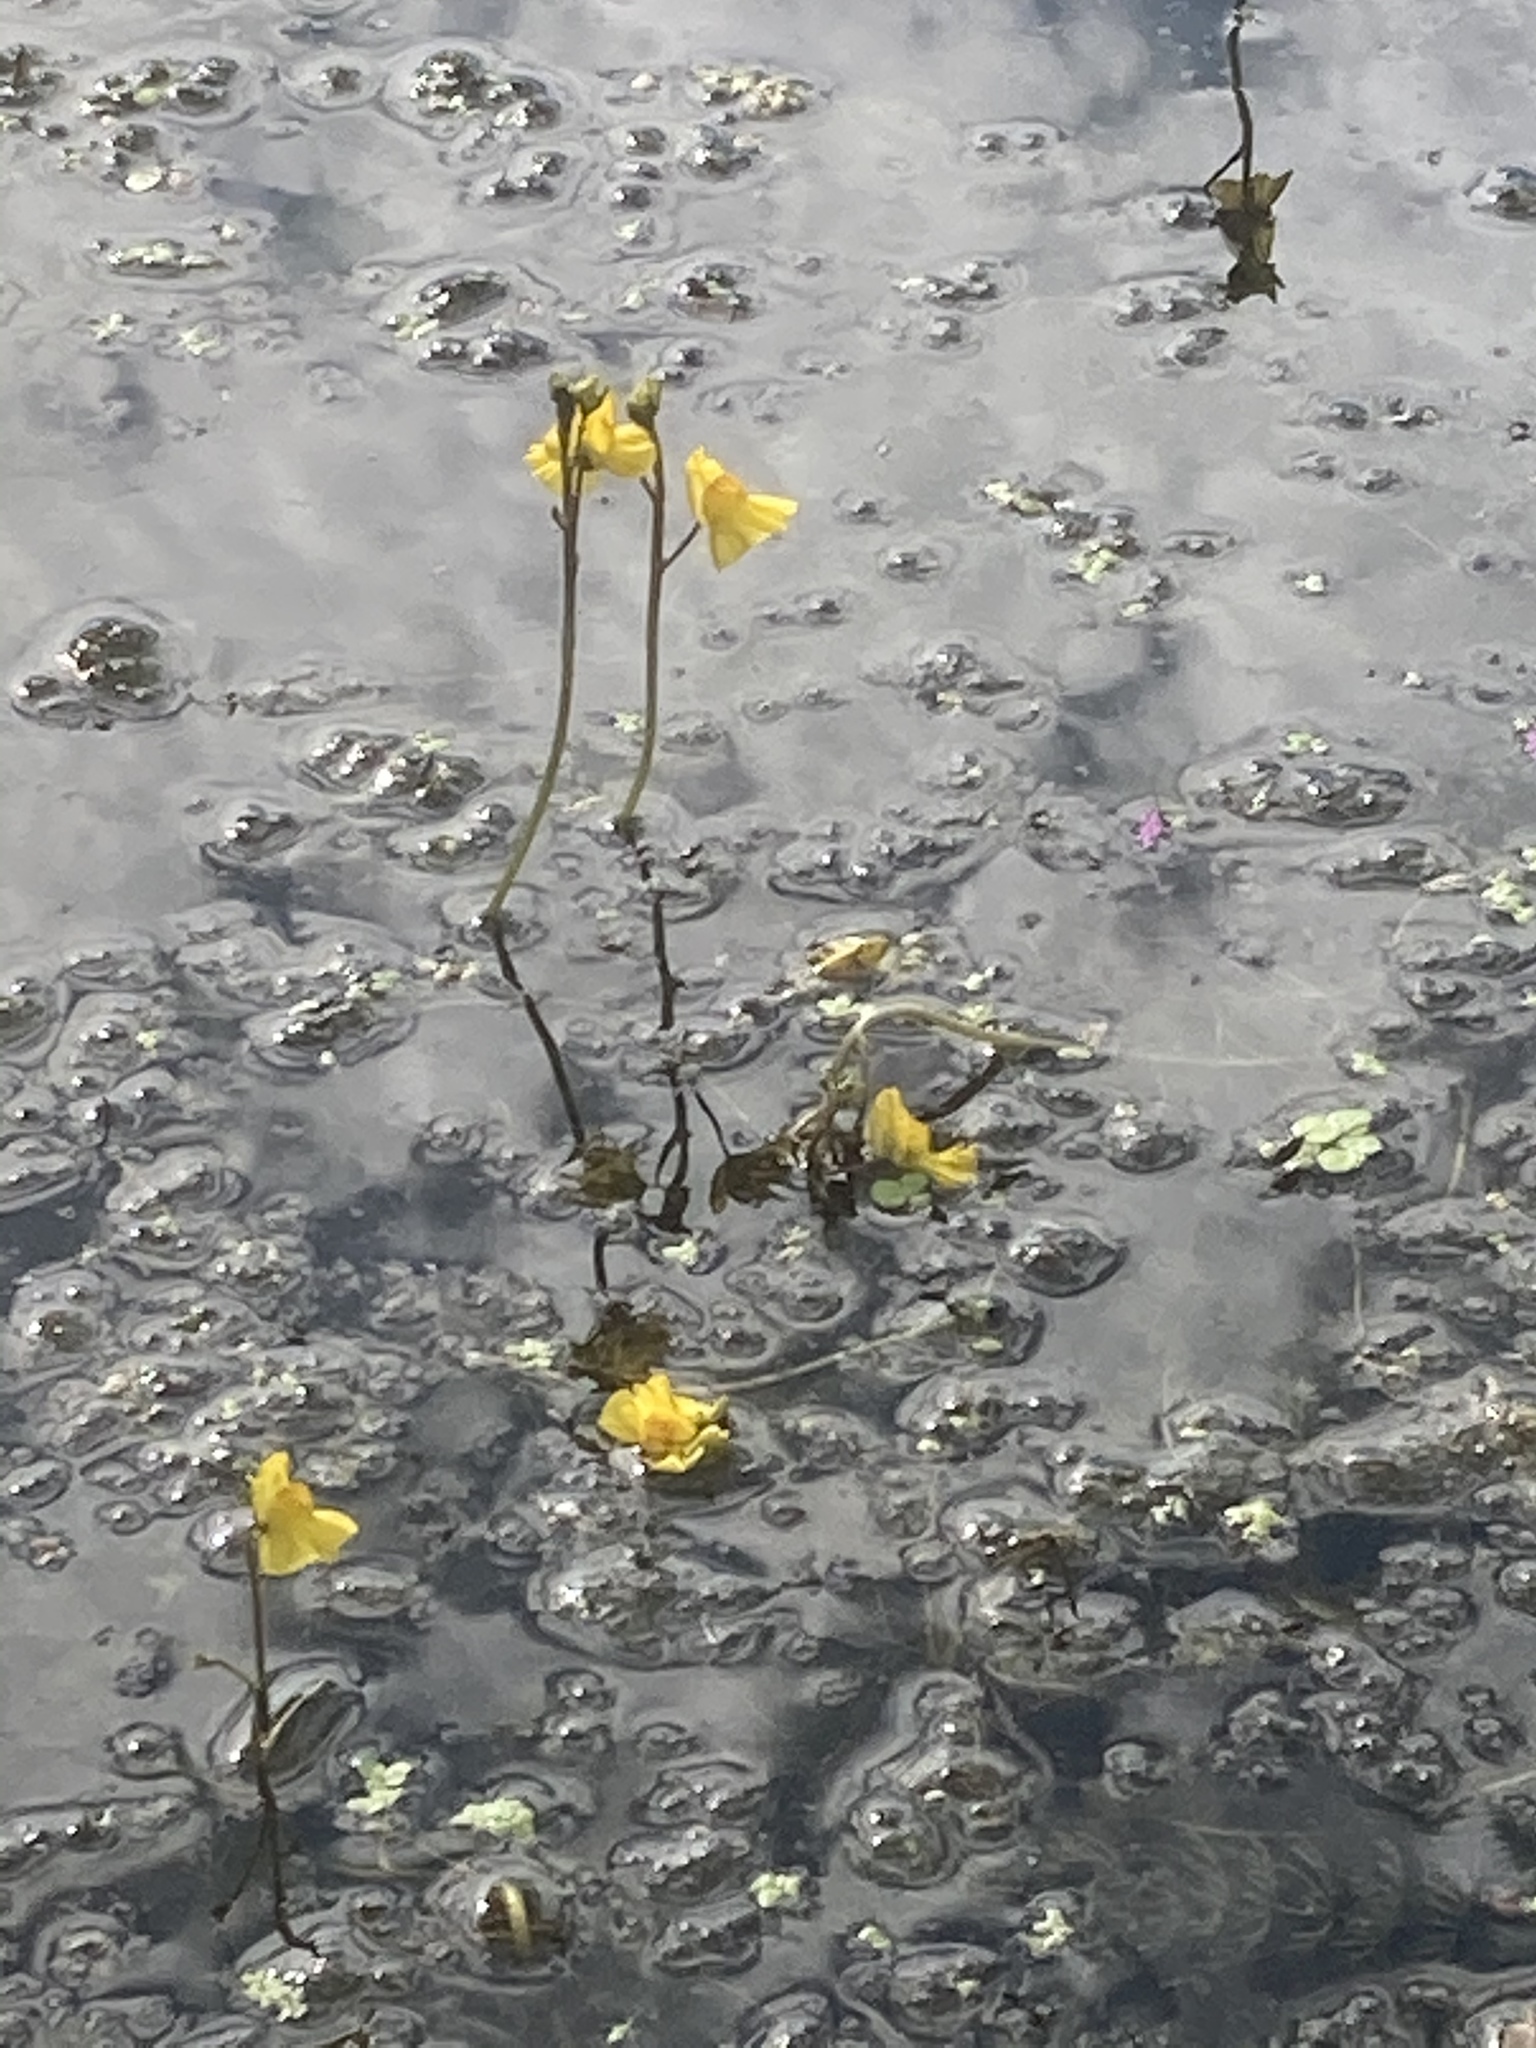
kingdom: Plantae
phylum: Tracheophyta
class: Magnoliopsida
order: Lamiales
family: Lentibulariaceae
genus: Utricularia
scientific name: Utricularia australis
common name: Bladderwort
